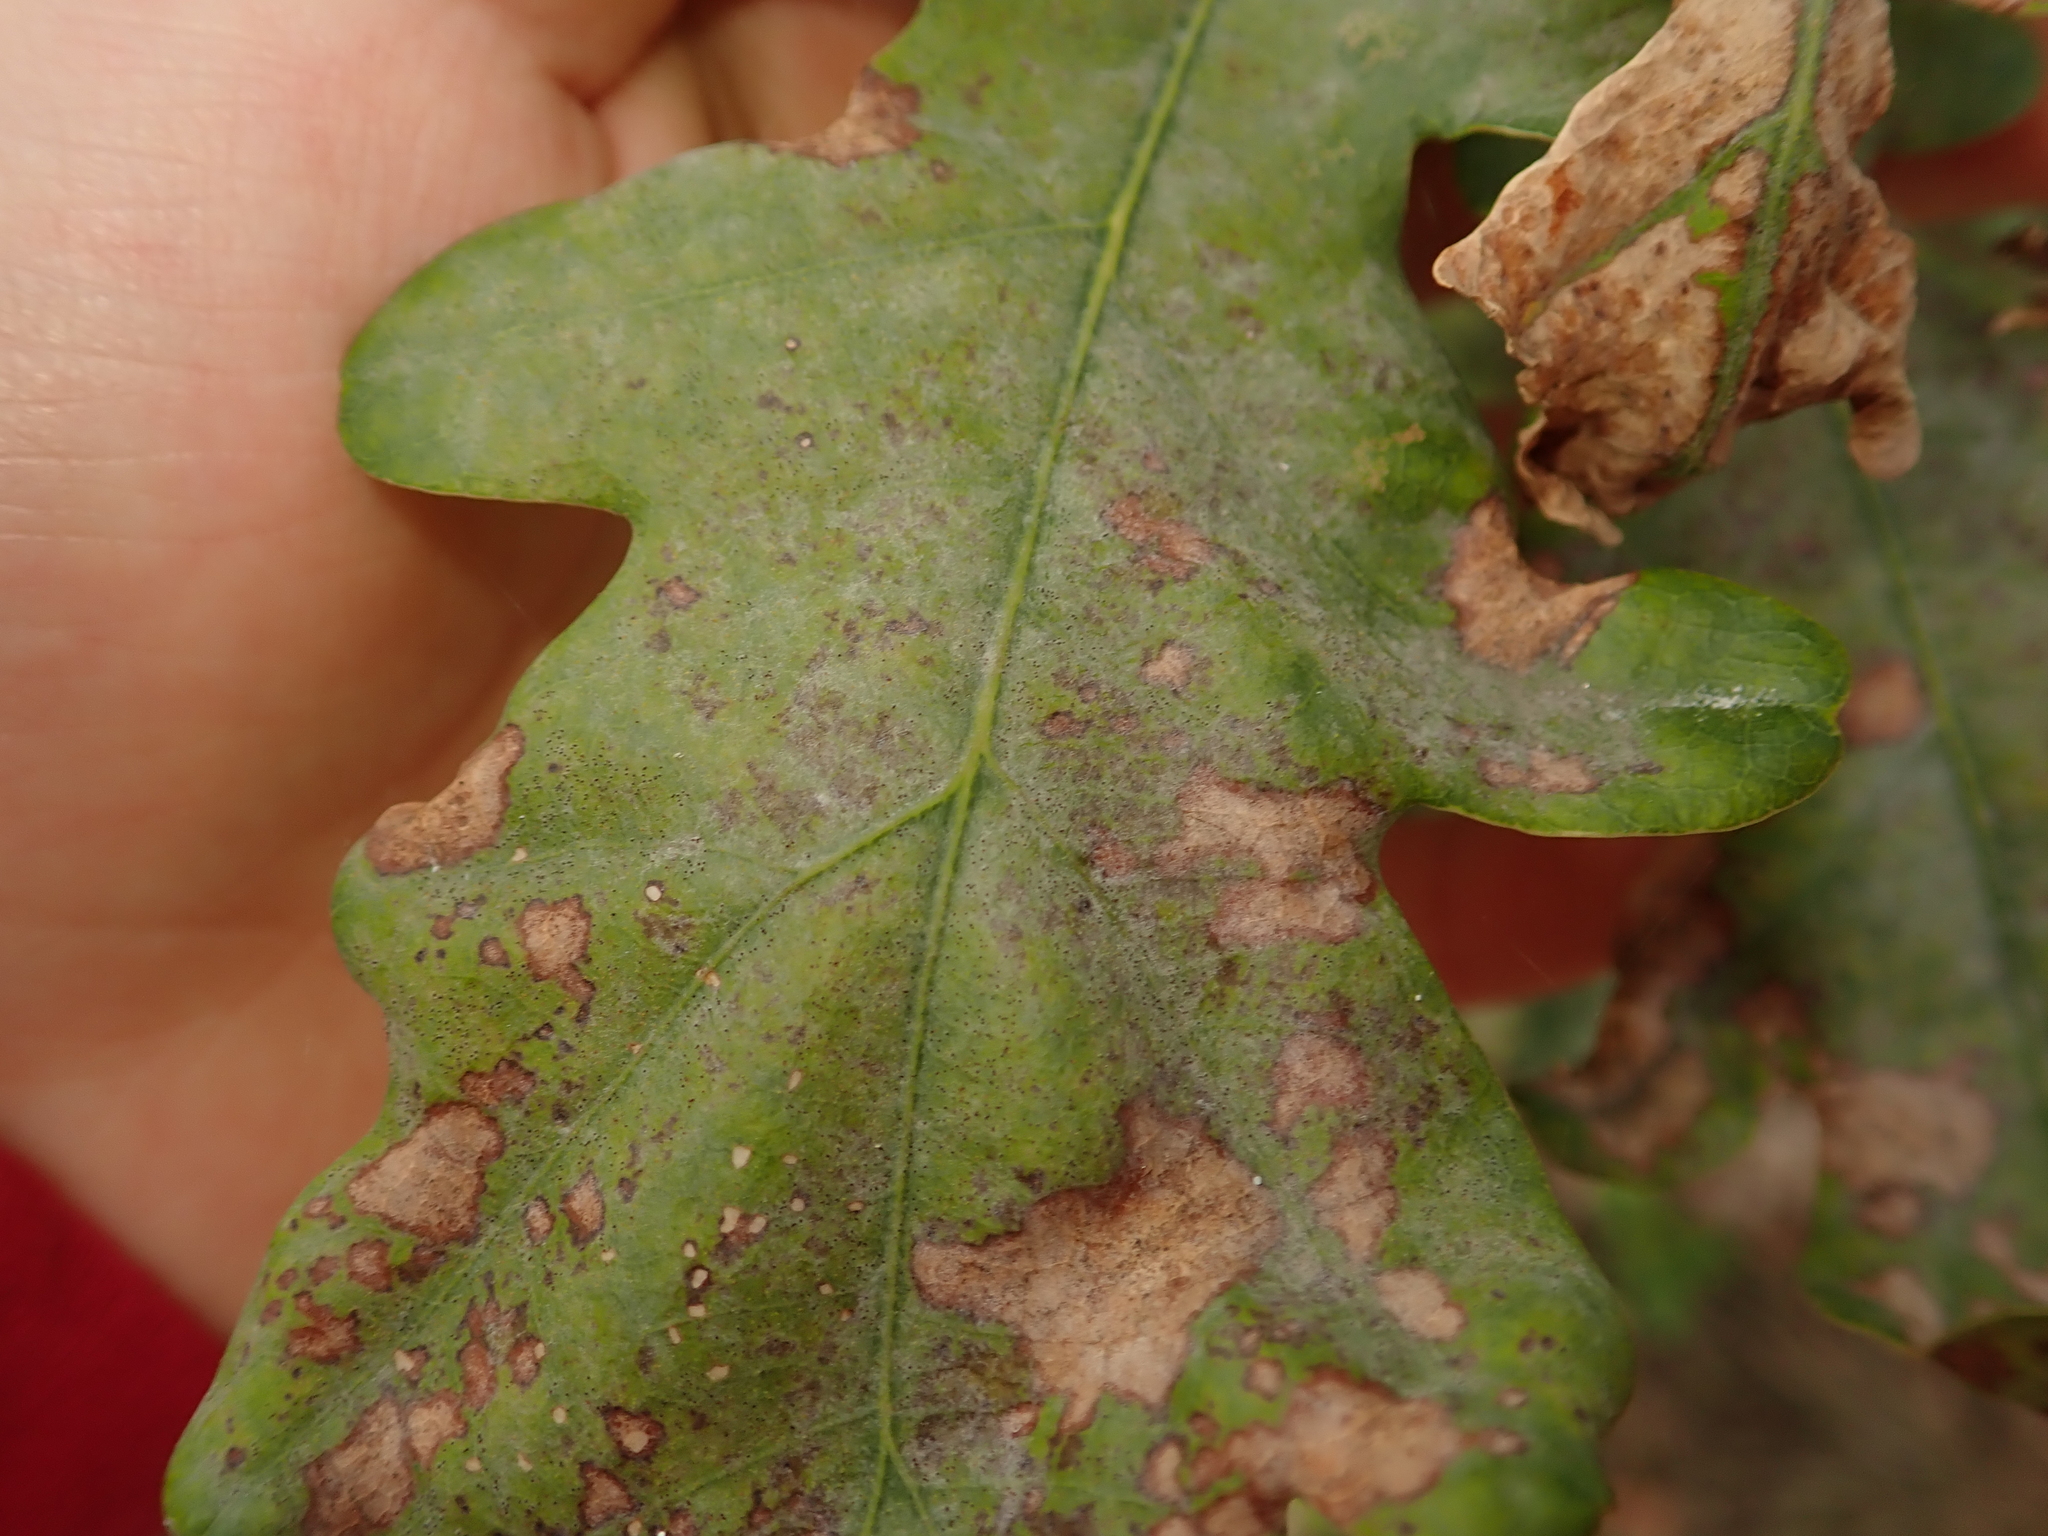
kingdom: Fungi
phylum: Ascomycota
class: Leotiomycetes
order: Helotiales
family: Erysiphaceae
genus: Erysiphe
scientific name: Erysiphe
